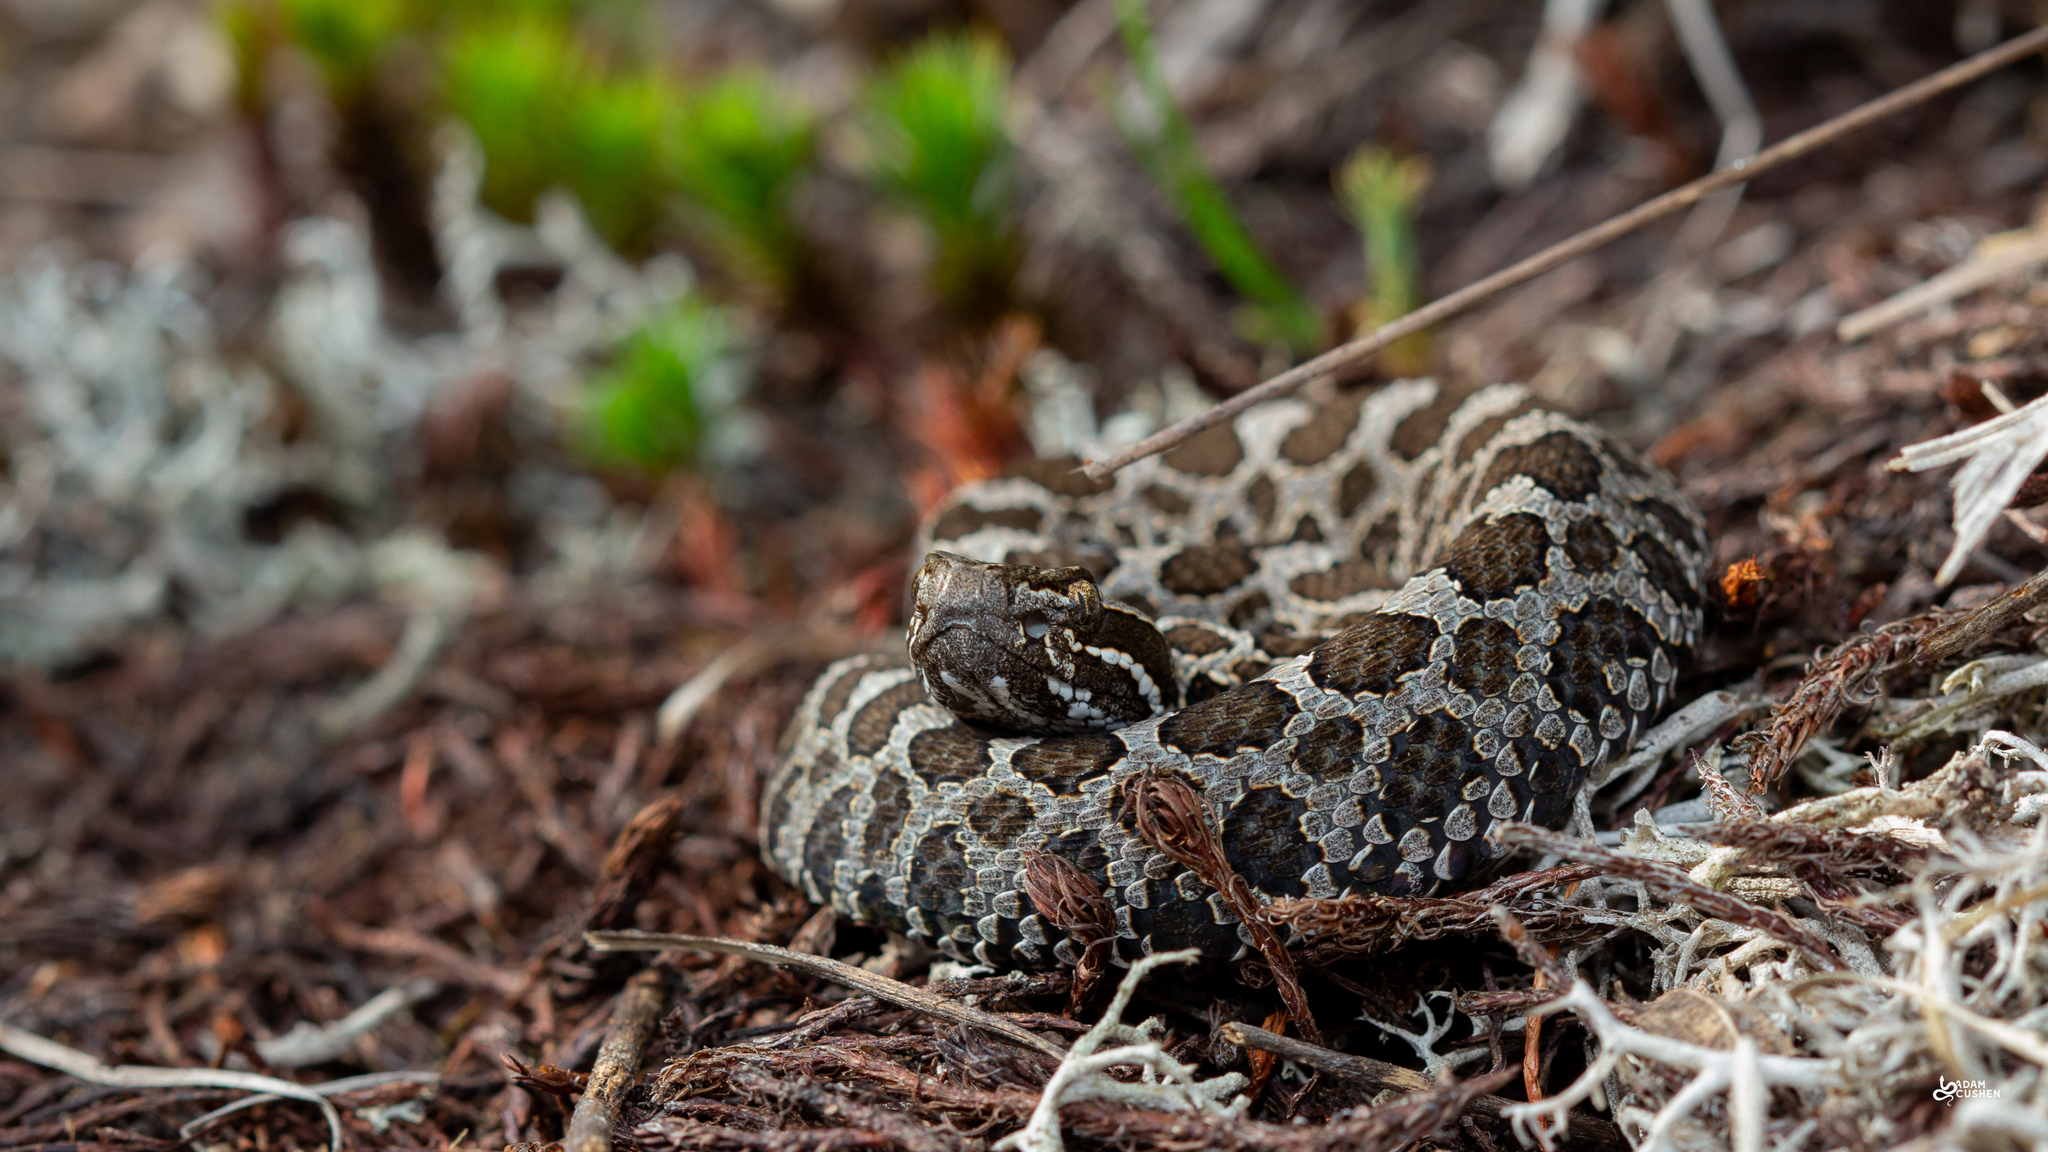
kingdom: Animalia
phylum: Chordata
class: Squamata
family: Viperidae
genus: Sistrurus
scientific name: Sistrurus catenatus
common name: Massasauga
